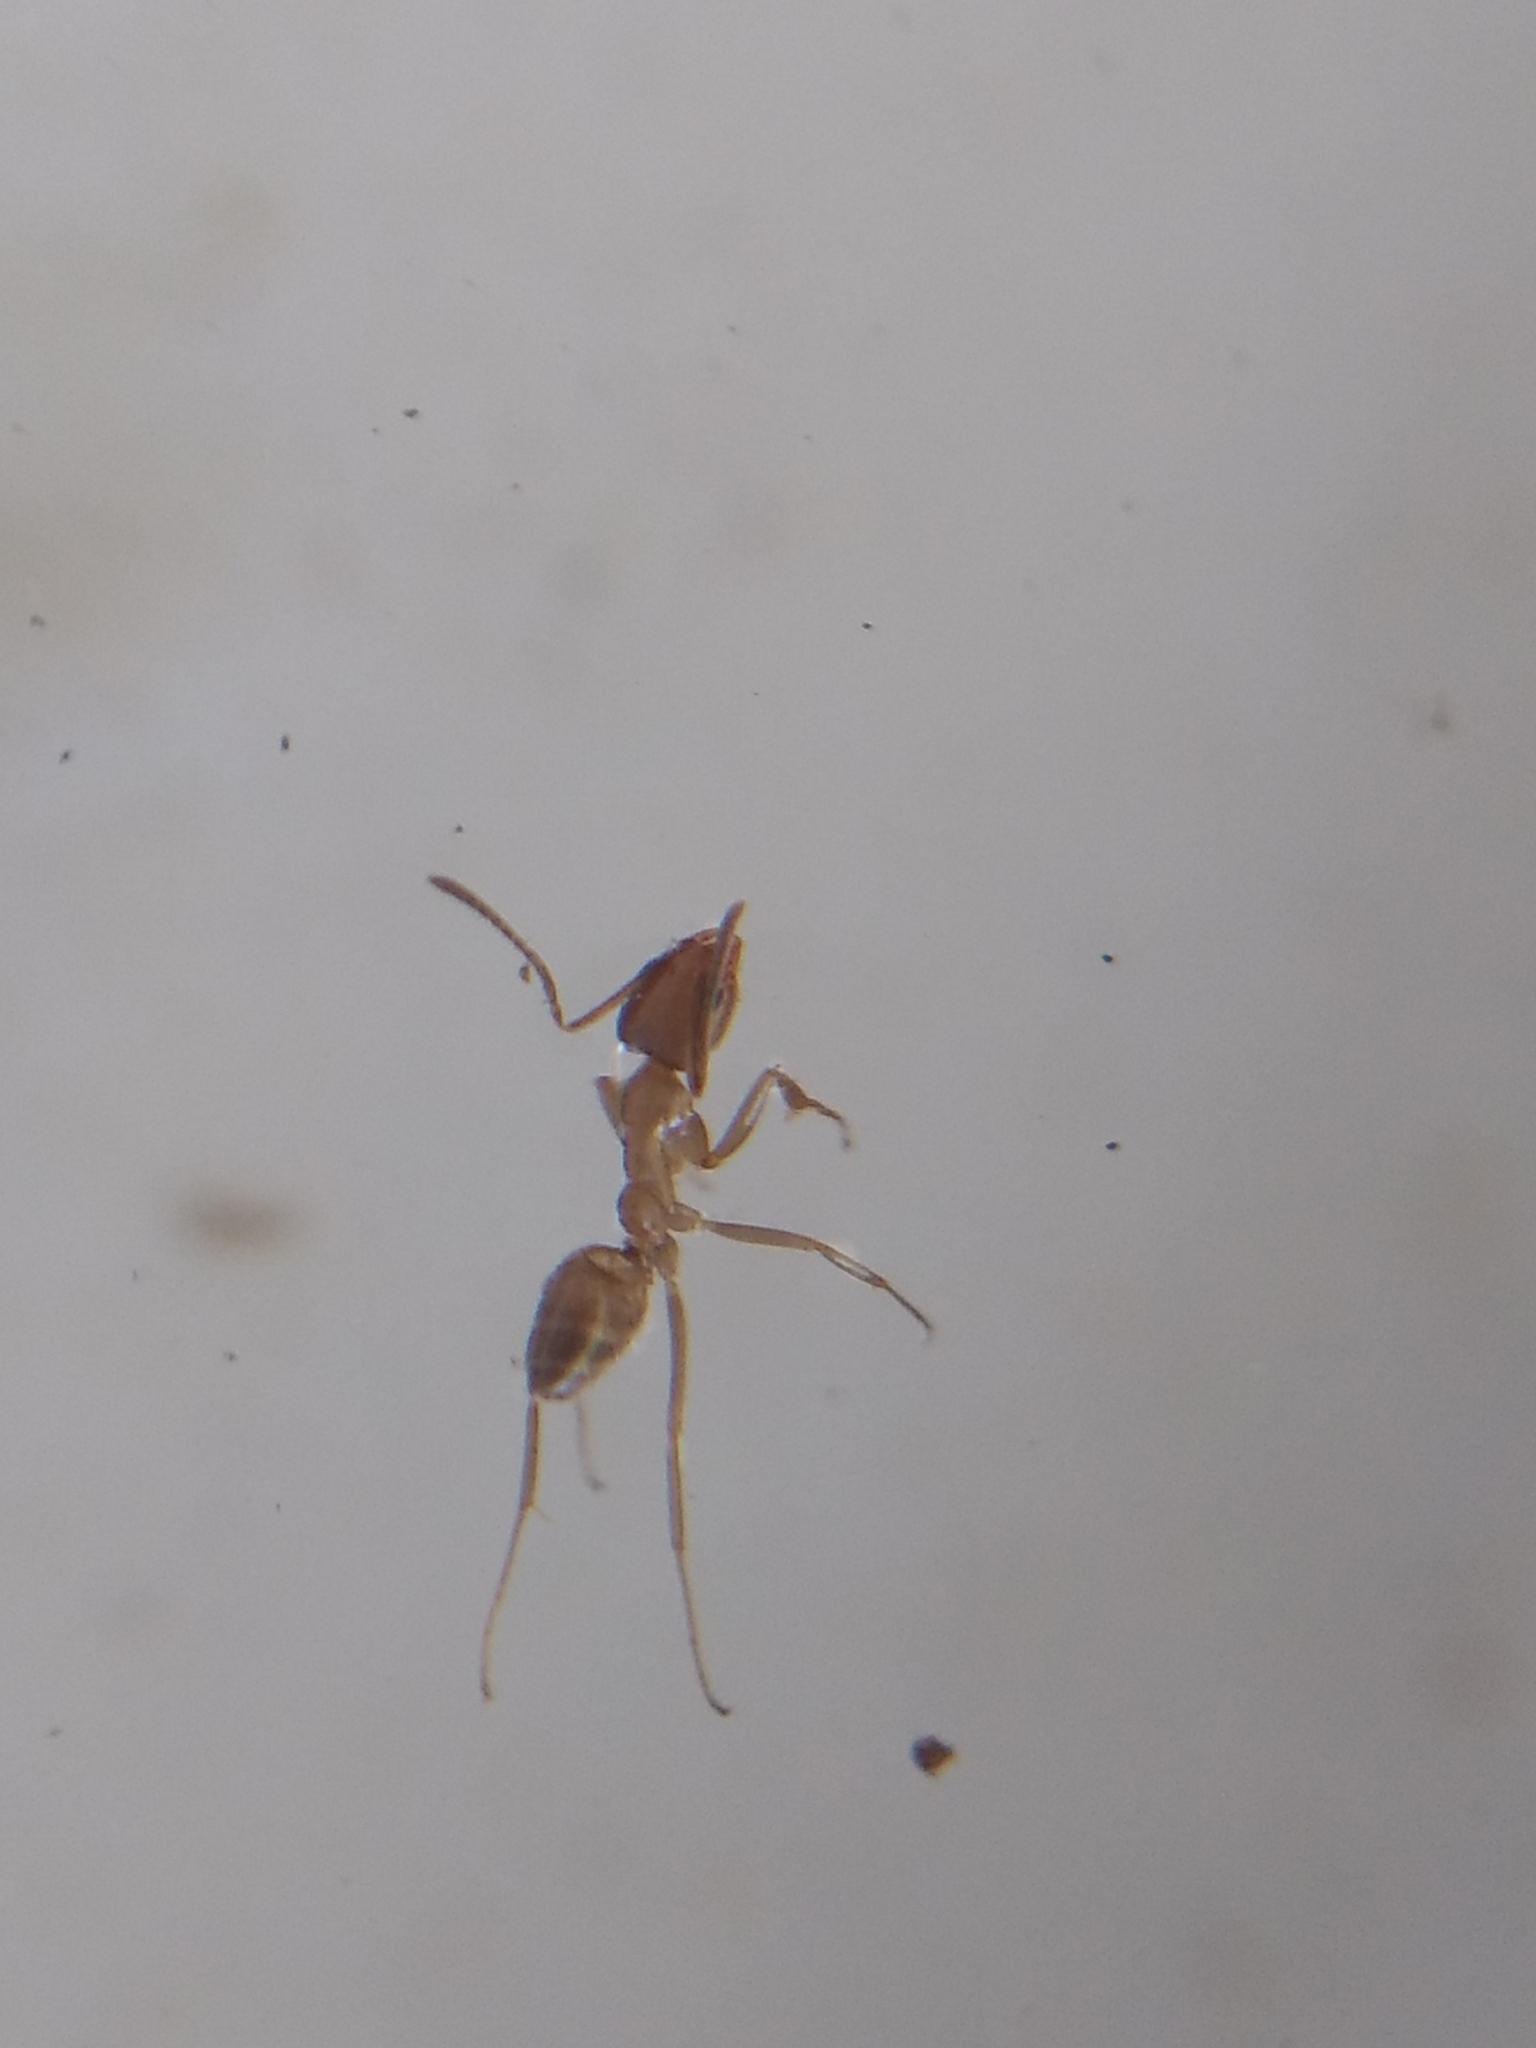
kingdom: Animalia
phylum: Arthropoda
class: Insecta
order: Hymenoptera
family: Formicidae
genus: Linepithema
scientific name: Linepithema humile
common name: Argentine ant
